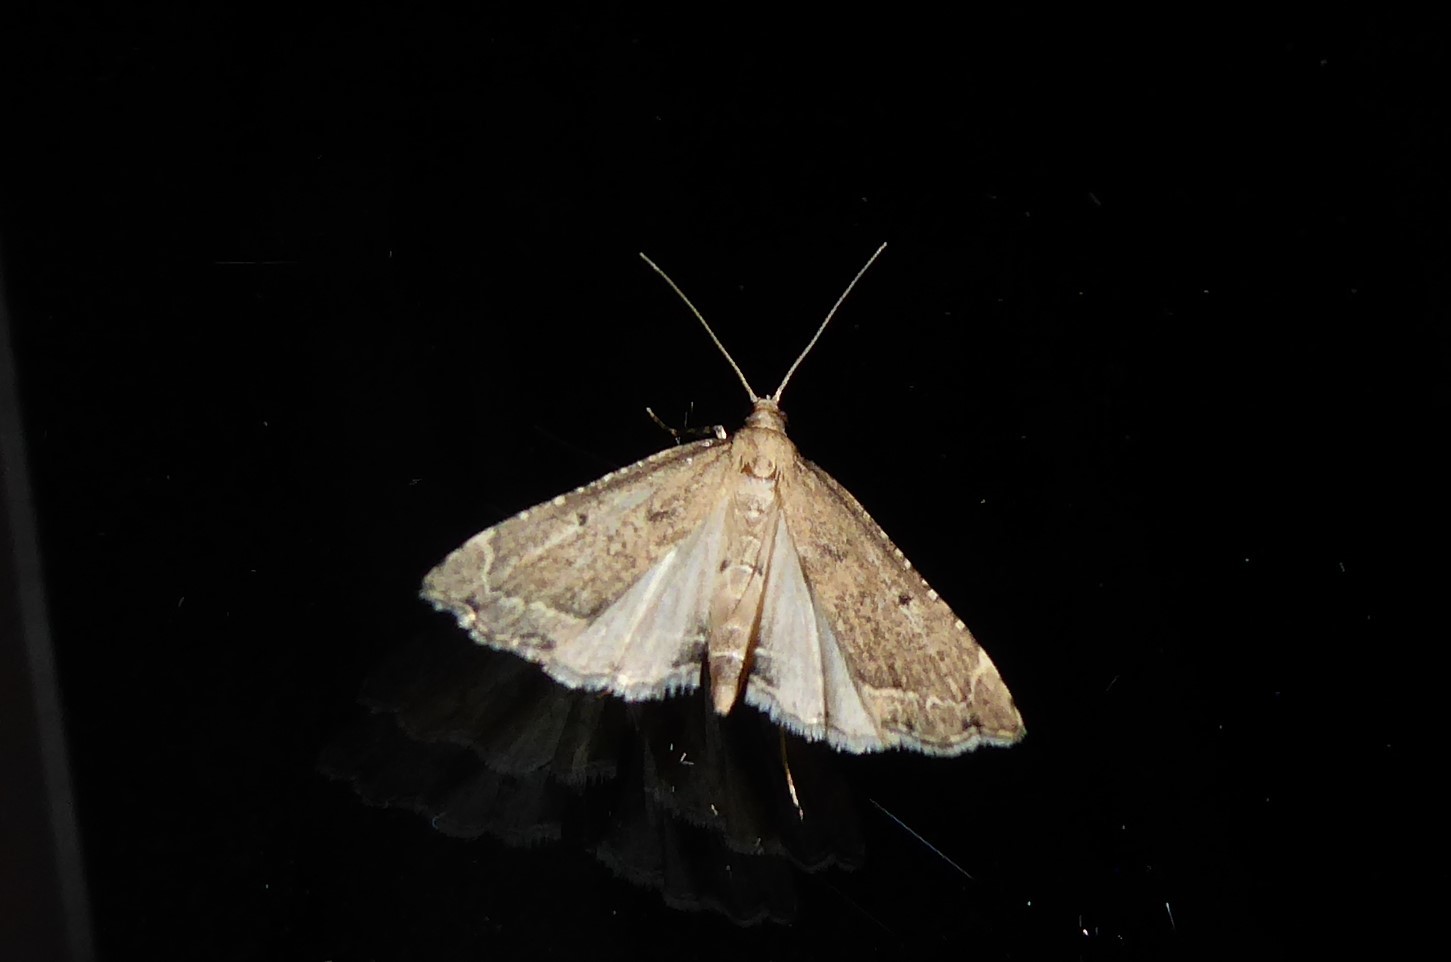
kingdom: Animalia
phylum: Arthropoda
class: Insecta
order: Lepidoptera
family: Crambidae
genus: Diplopseustis
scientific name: Diplopseustis perieresalis
